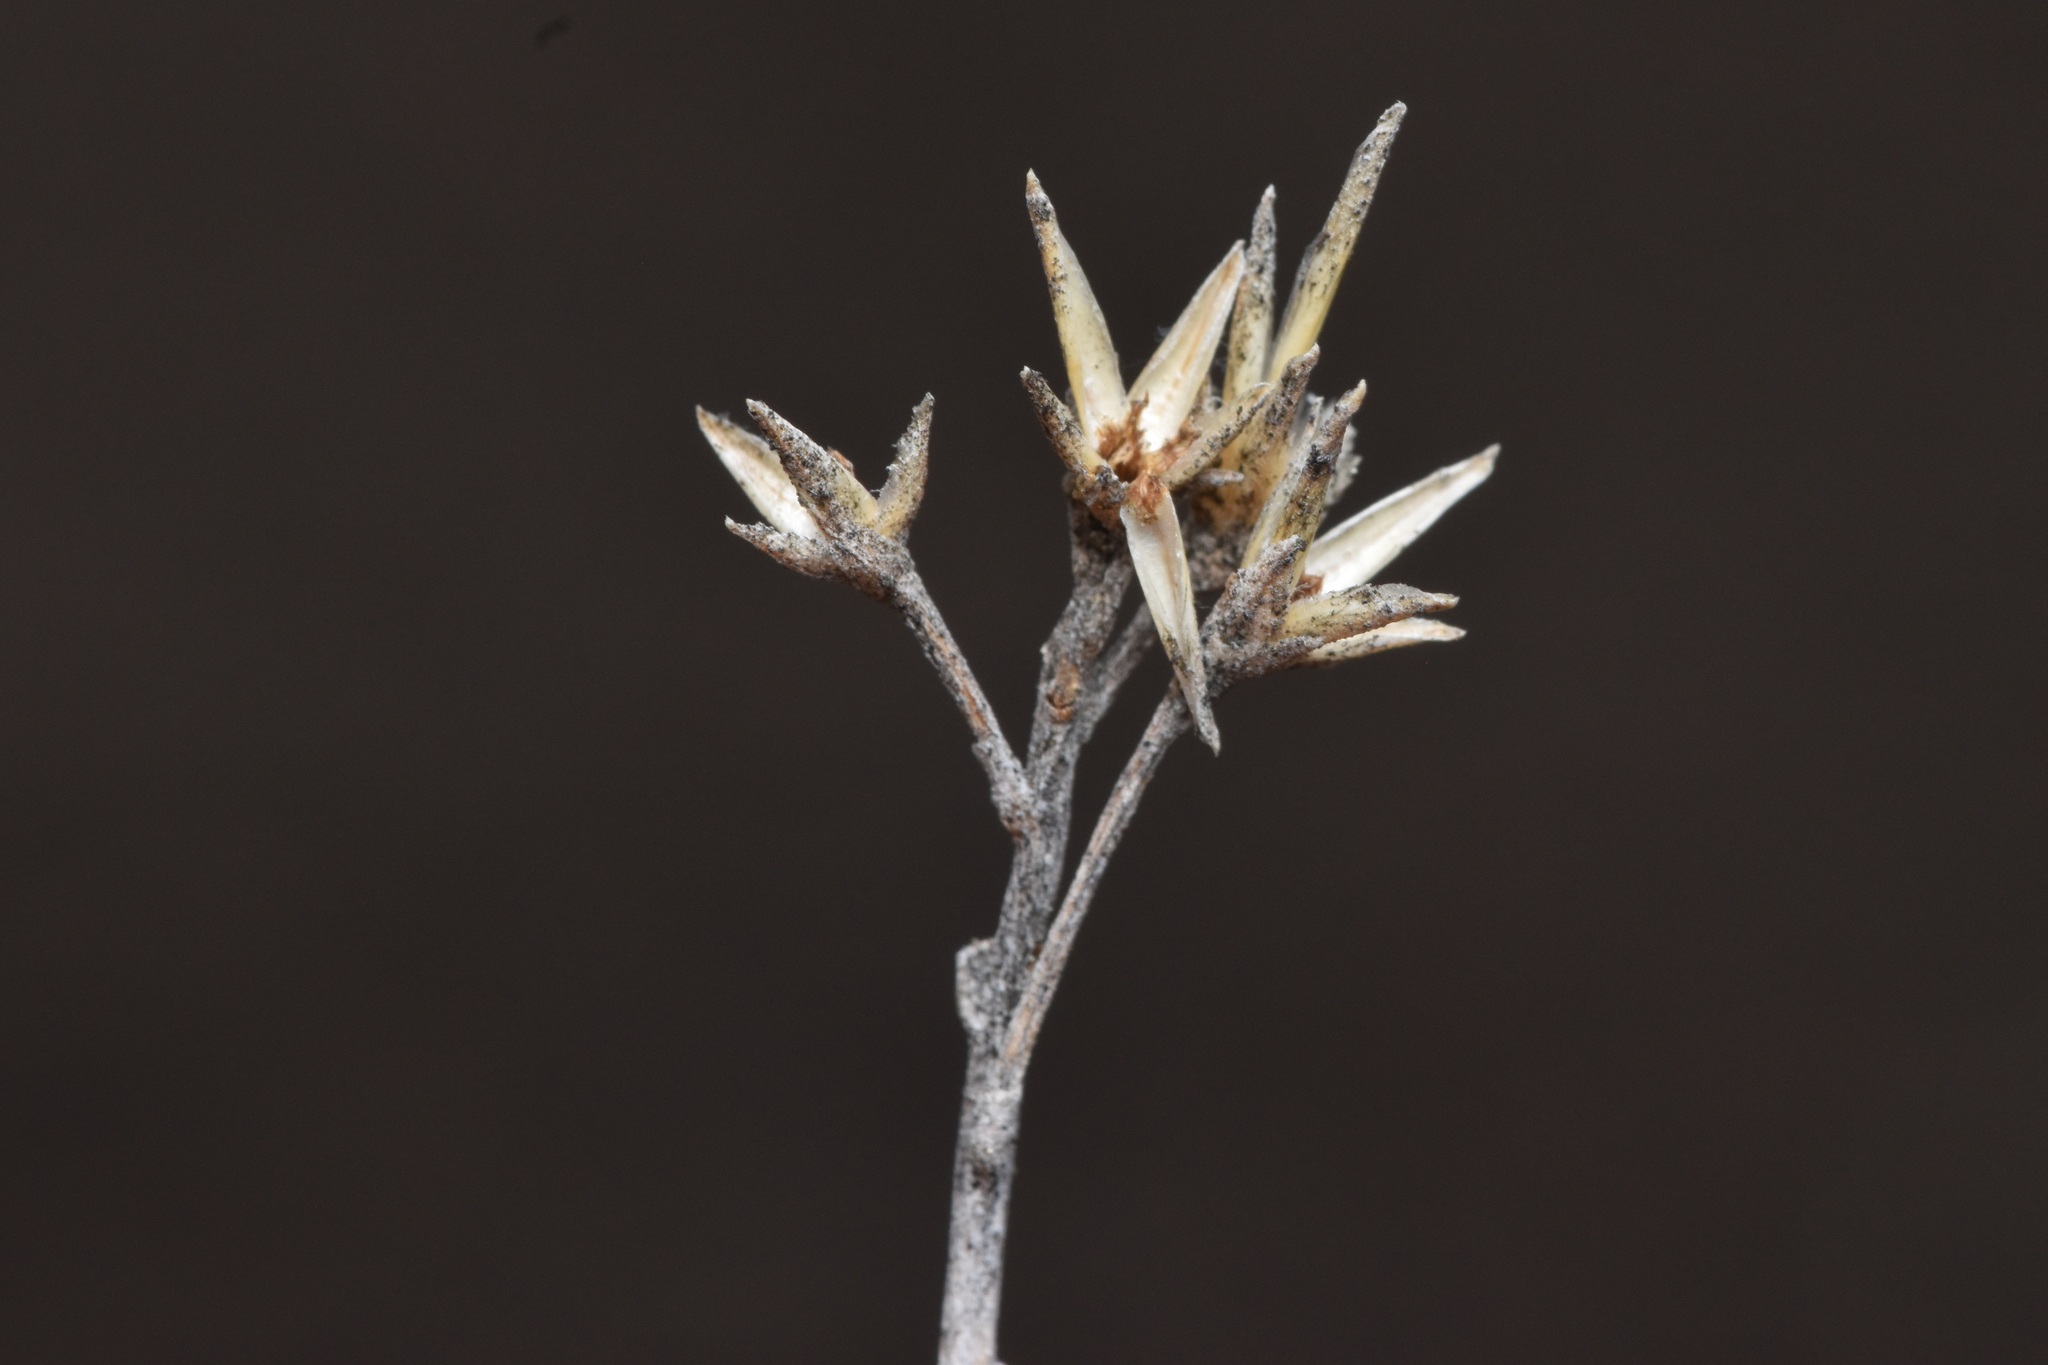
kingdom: Plantae
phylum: Tracheophyta
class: Magnoliopsida
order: Asterales
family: Asteraceae
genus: Ericameria
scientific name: Ericameria nauseosa
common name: Rubber rabbitbrush
